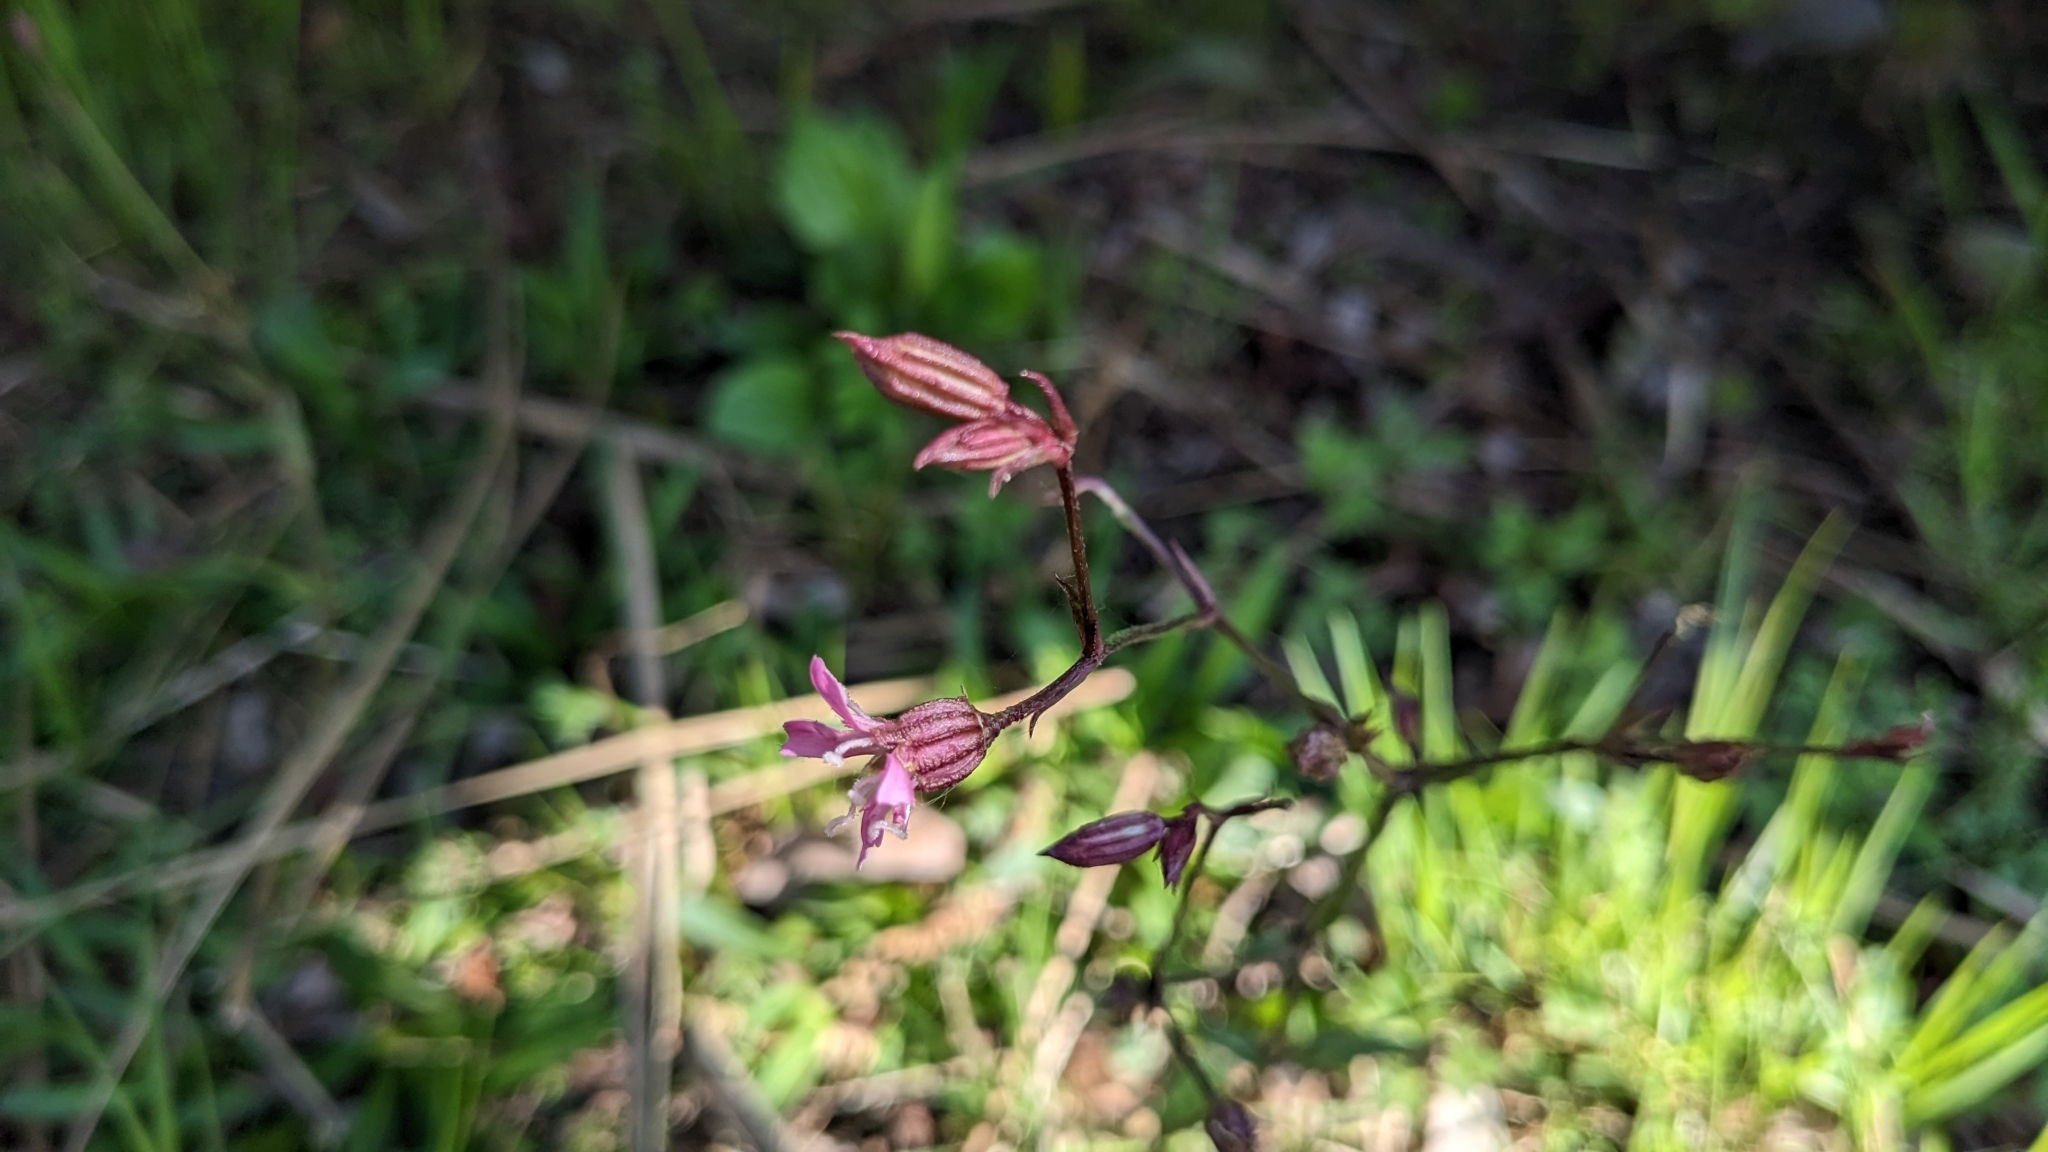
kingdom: Plantae
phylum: Tracheophyta
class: Magnoliopsida
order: Caryophyllales
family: Caryophyllaceae
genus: Silene
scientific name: Silene flos-cuculi
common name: Ragged-robin
